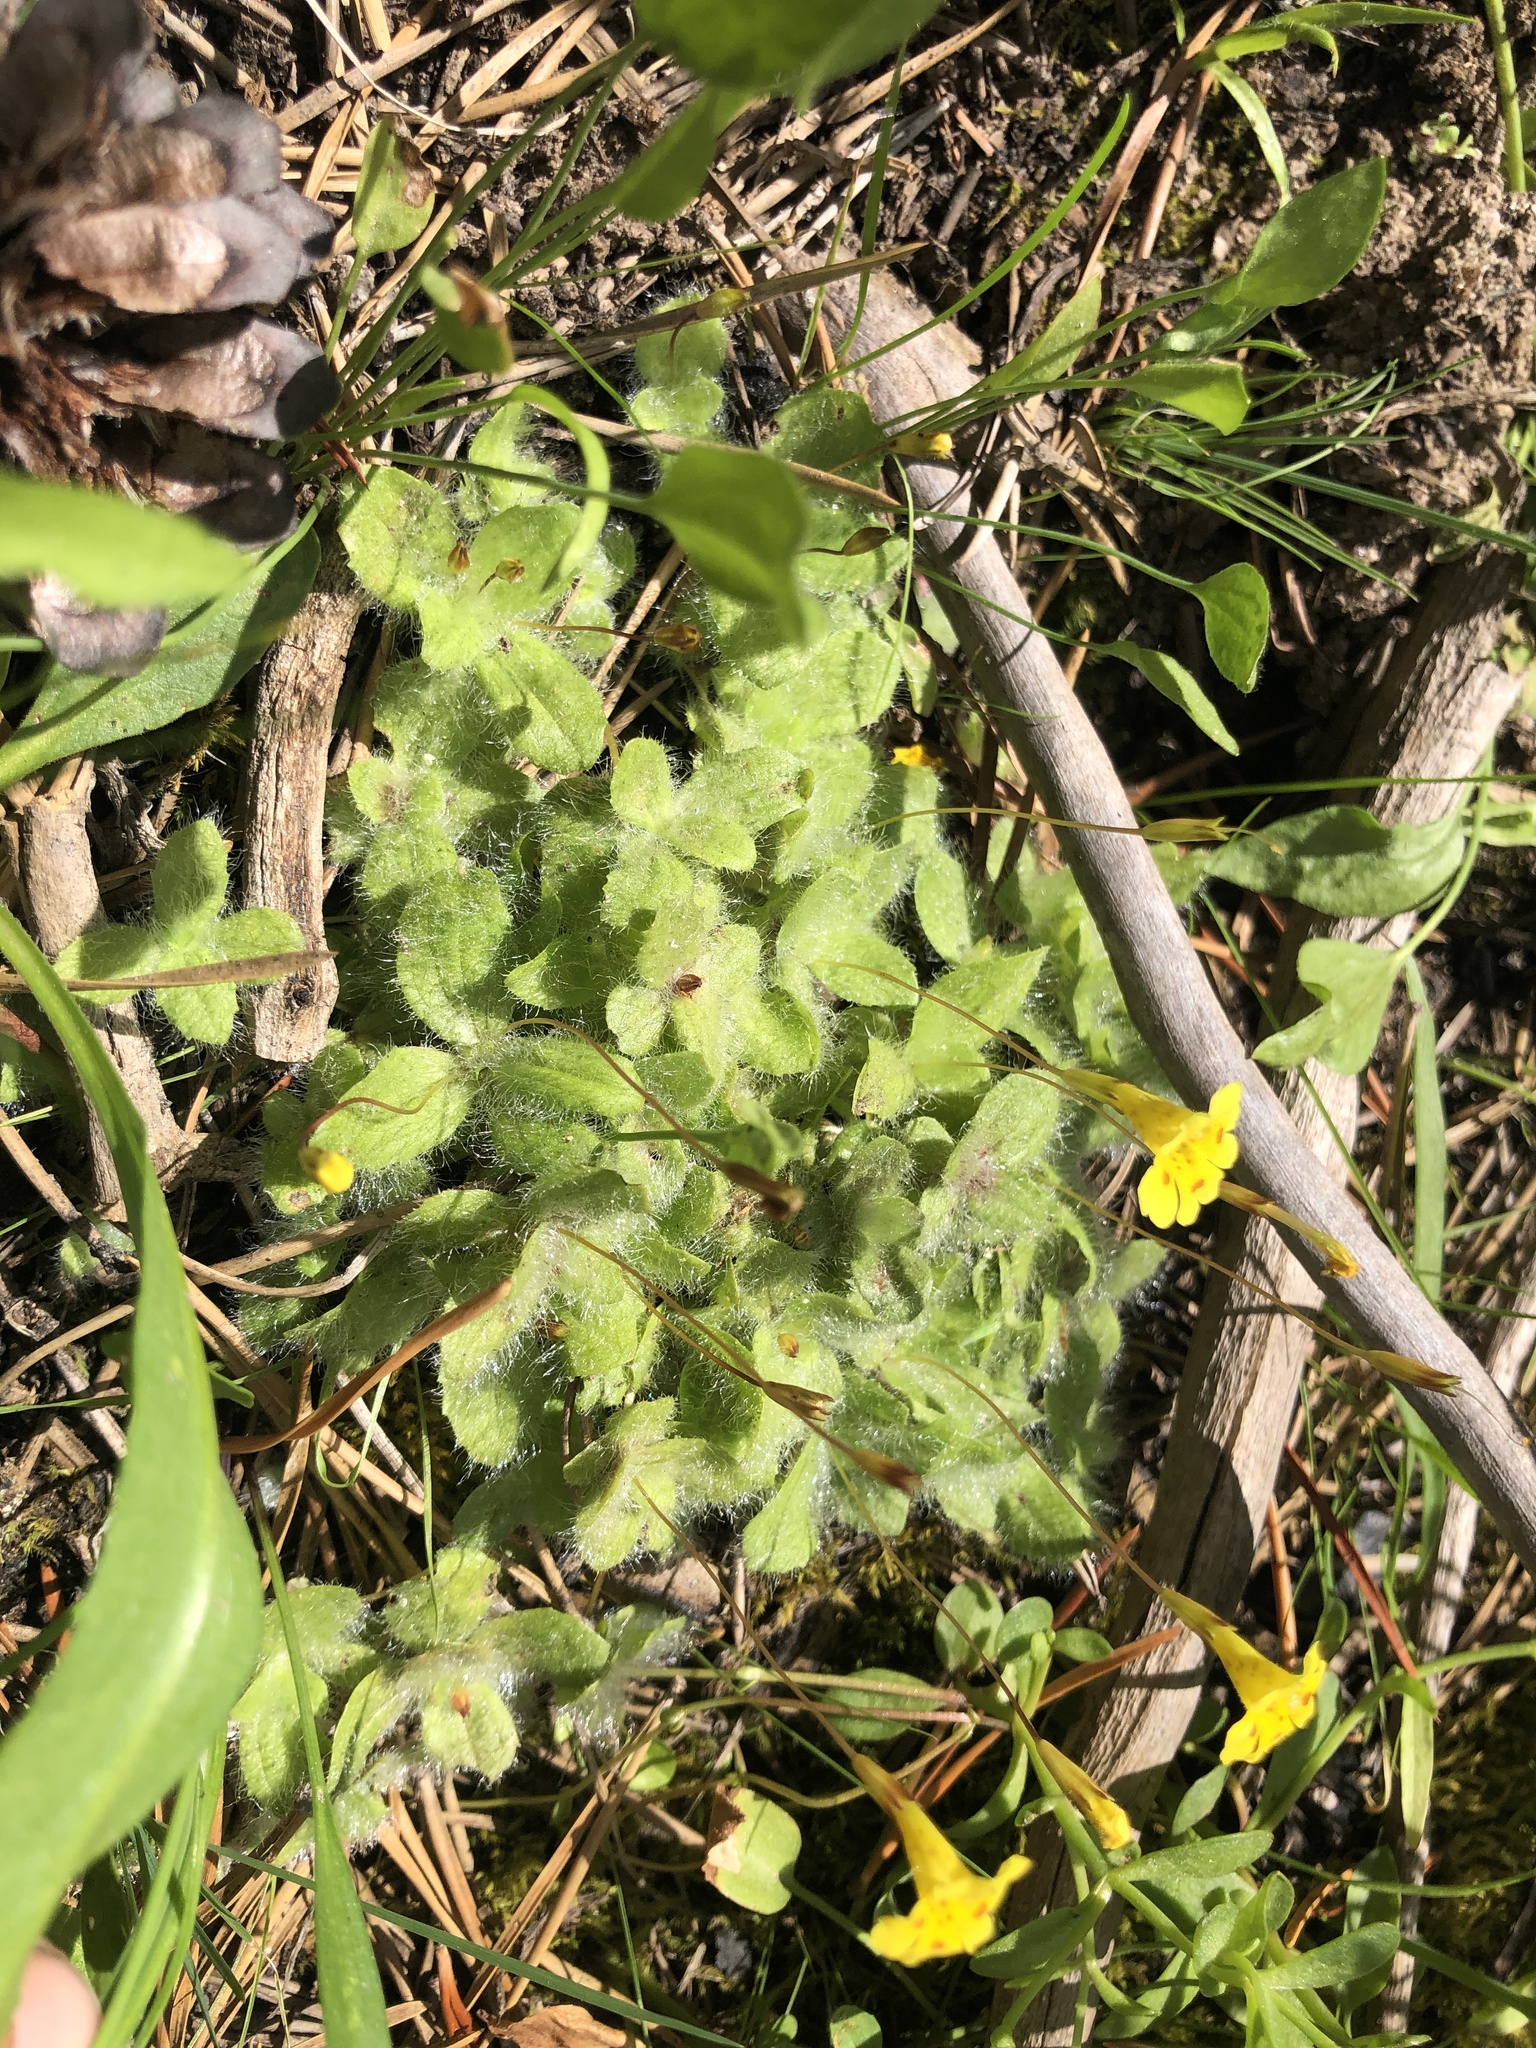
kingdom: Plantae
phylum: Tracheophyta
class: Magnoliopsida
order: Lamiales
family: Phrymaceae
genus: Erythranthe
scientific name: Erythranthe primuloides
